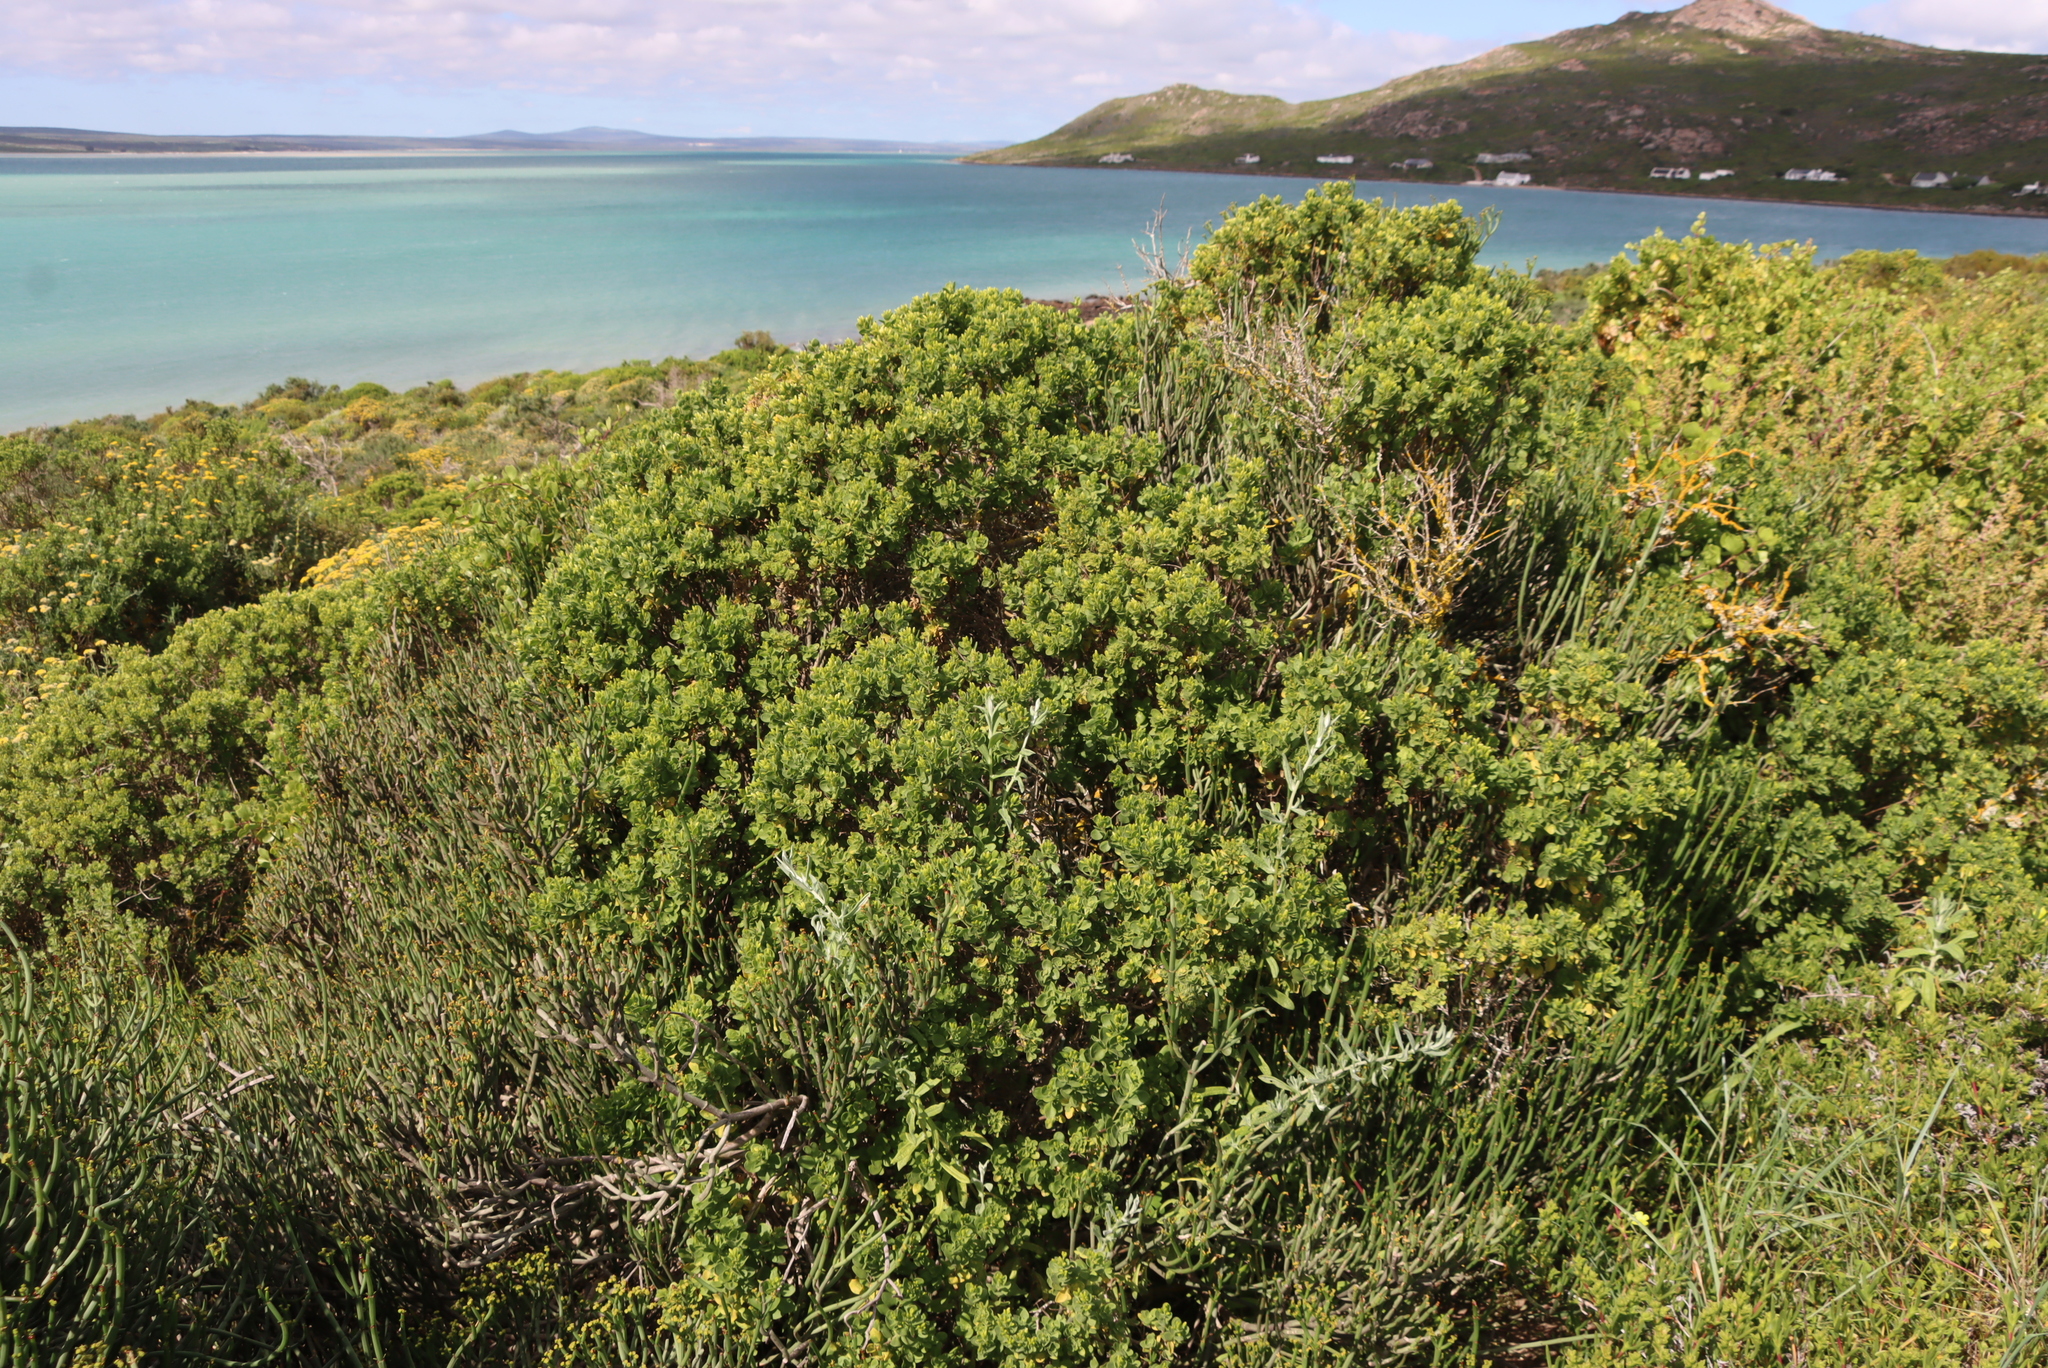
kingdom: Plantae
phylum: Tracheophyta
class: Magnoliopsida
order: Asterales
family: Asteraceae
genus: Pteronia
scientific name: Pteronia divaricata
